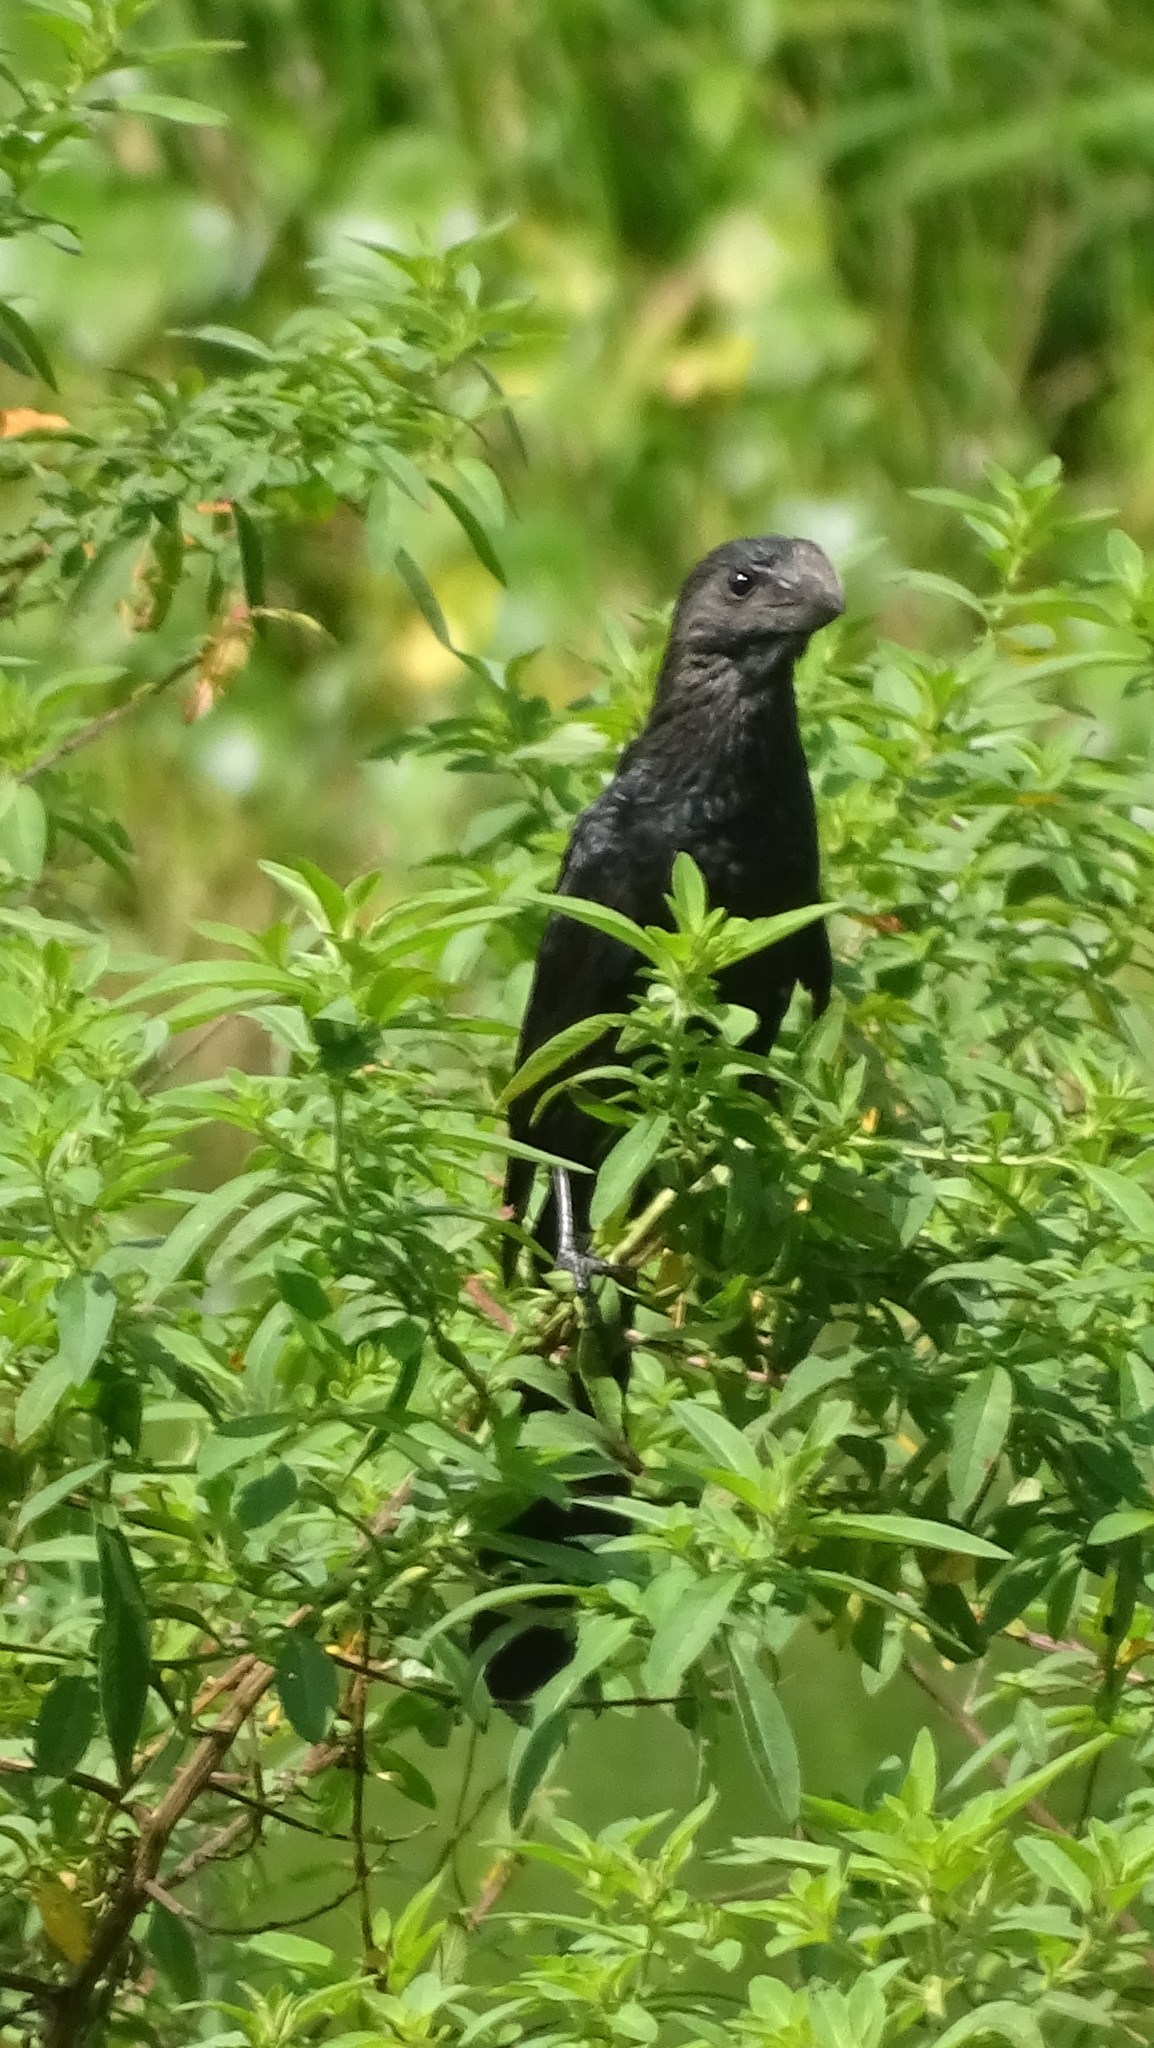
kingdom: Animalia
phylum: Chordata
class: Aves
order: Cuculiformes
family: Cuculidae
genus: Crotophaga
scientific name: Crotophaga ani
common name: Smooth-billed ani
